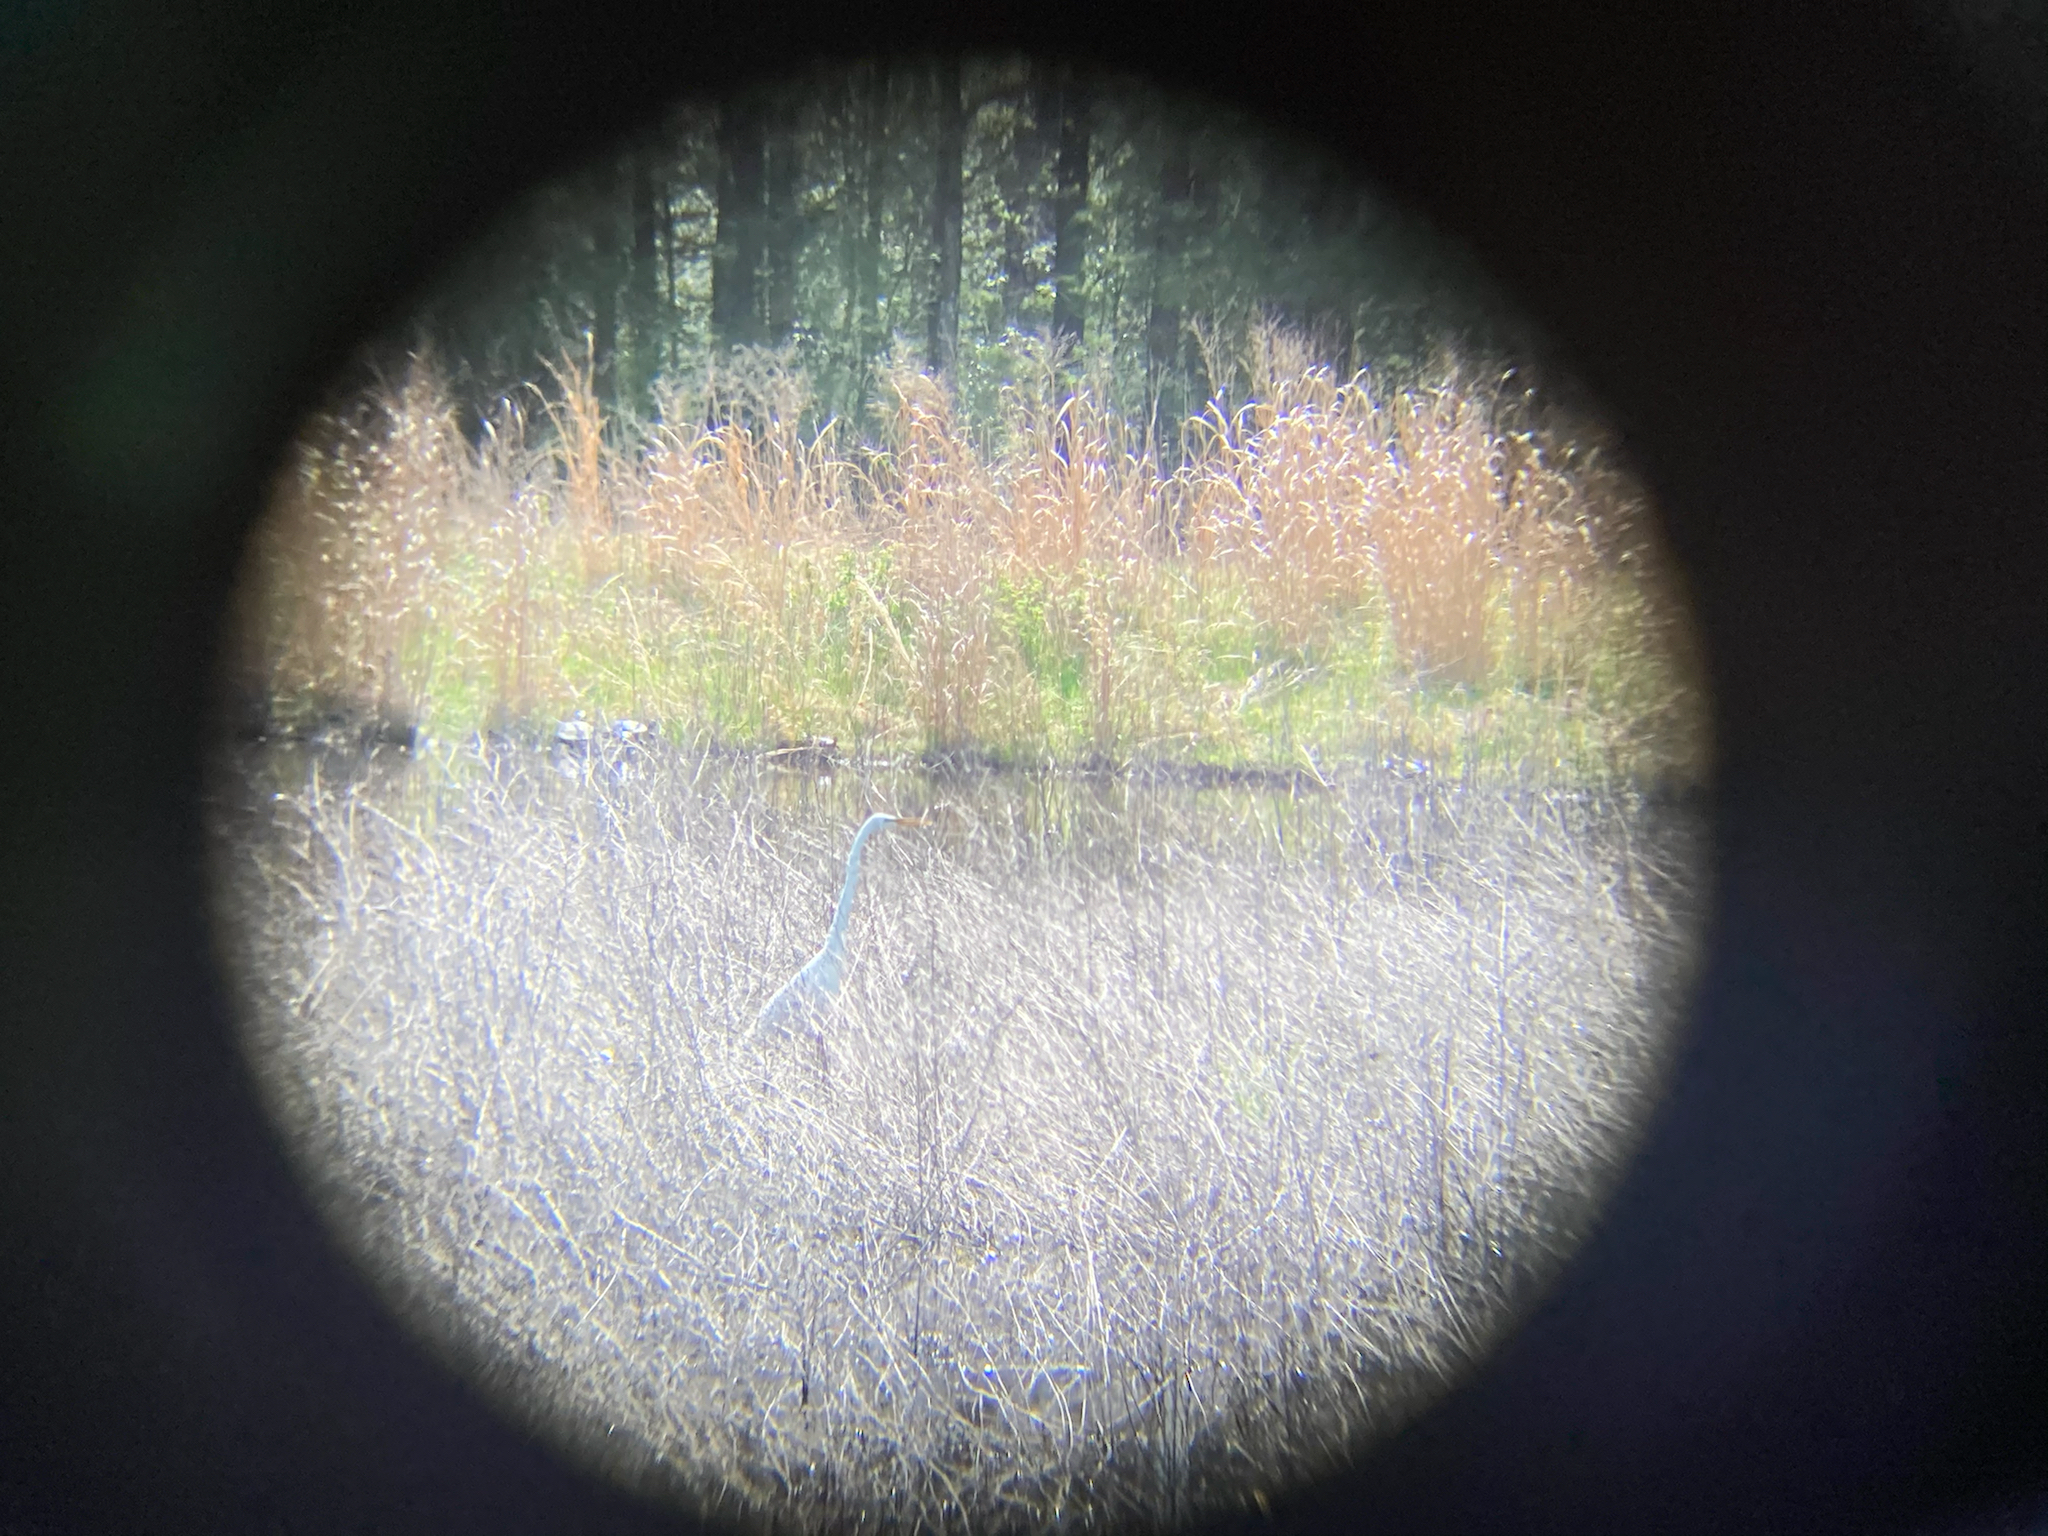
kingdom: Animalia
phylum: Chordata
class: Aves
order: Pelecaniformes
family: Ardeidae
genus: Ardea
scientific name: Ardea alba
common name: Great egret
